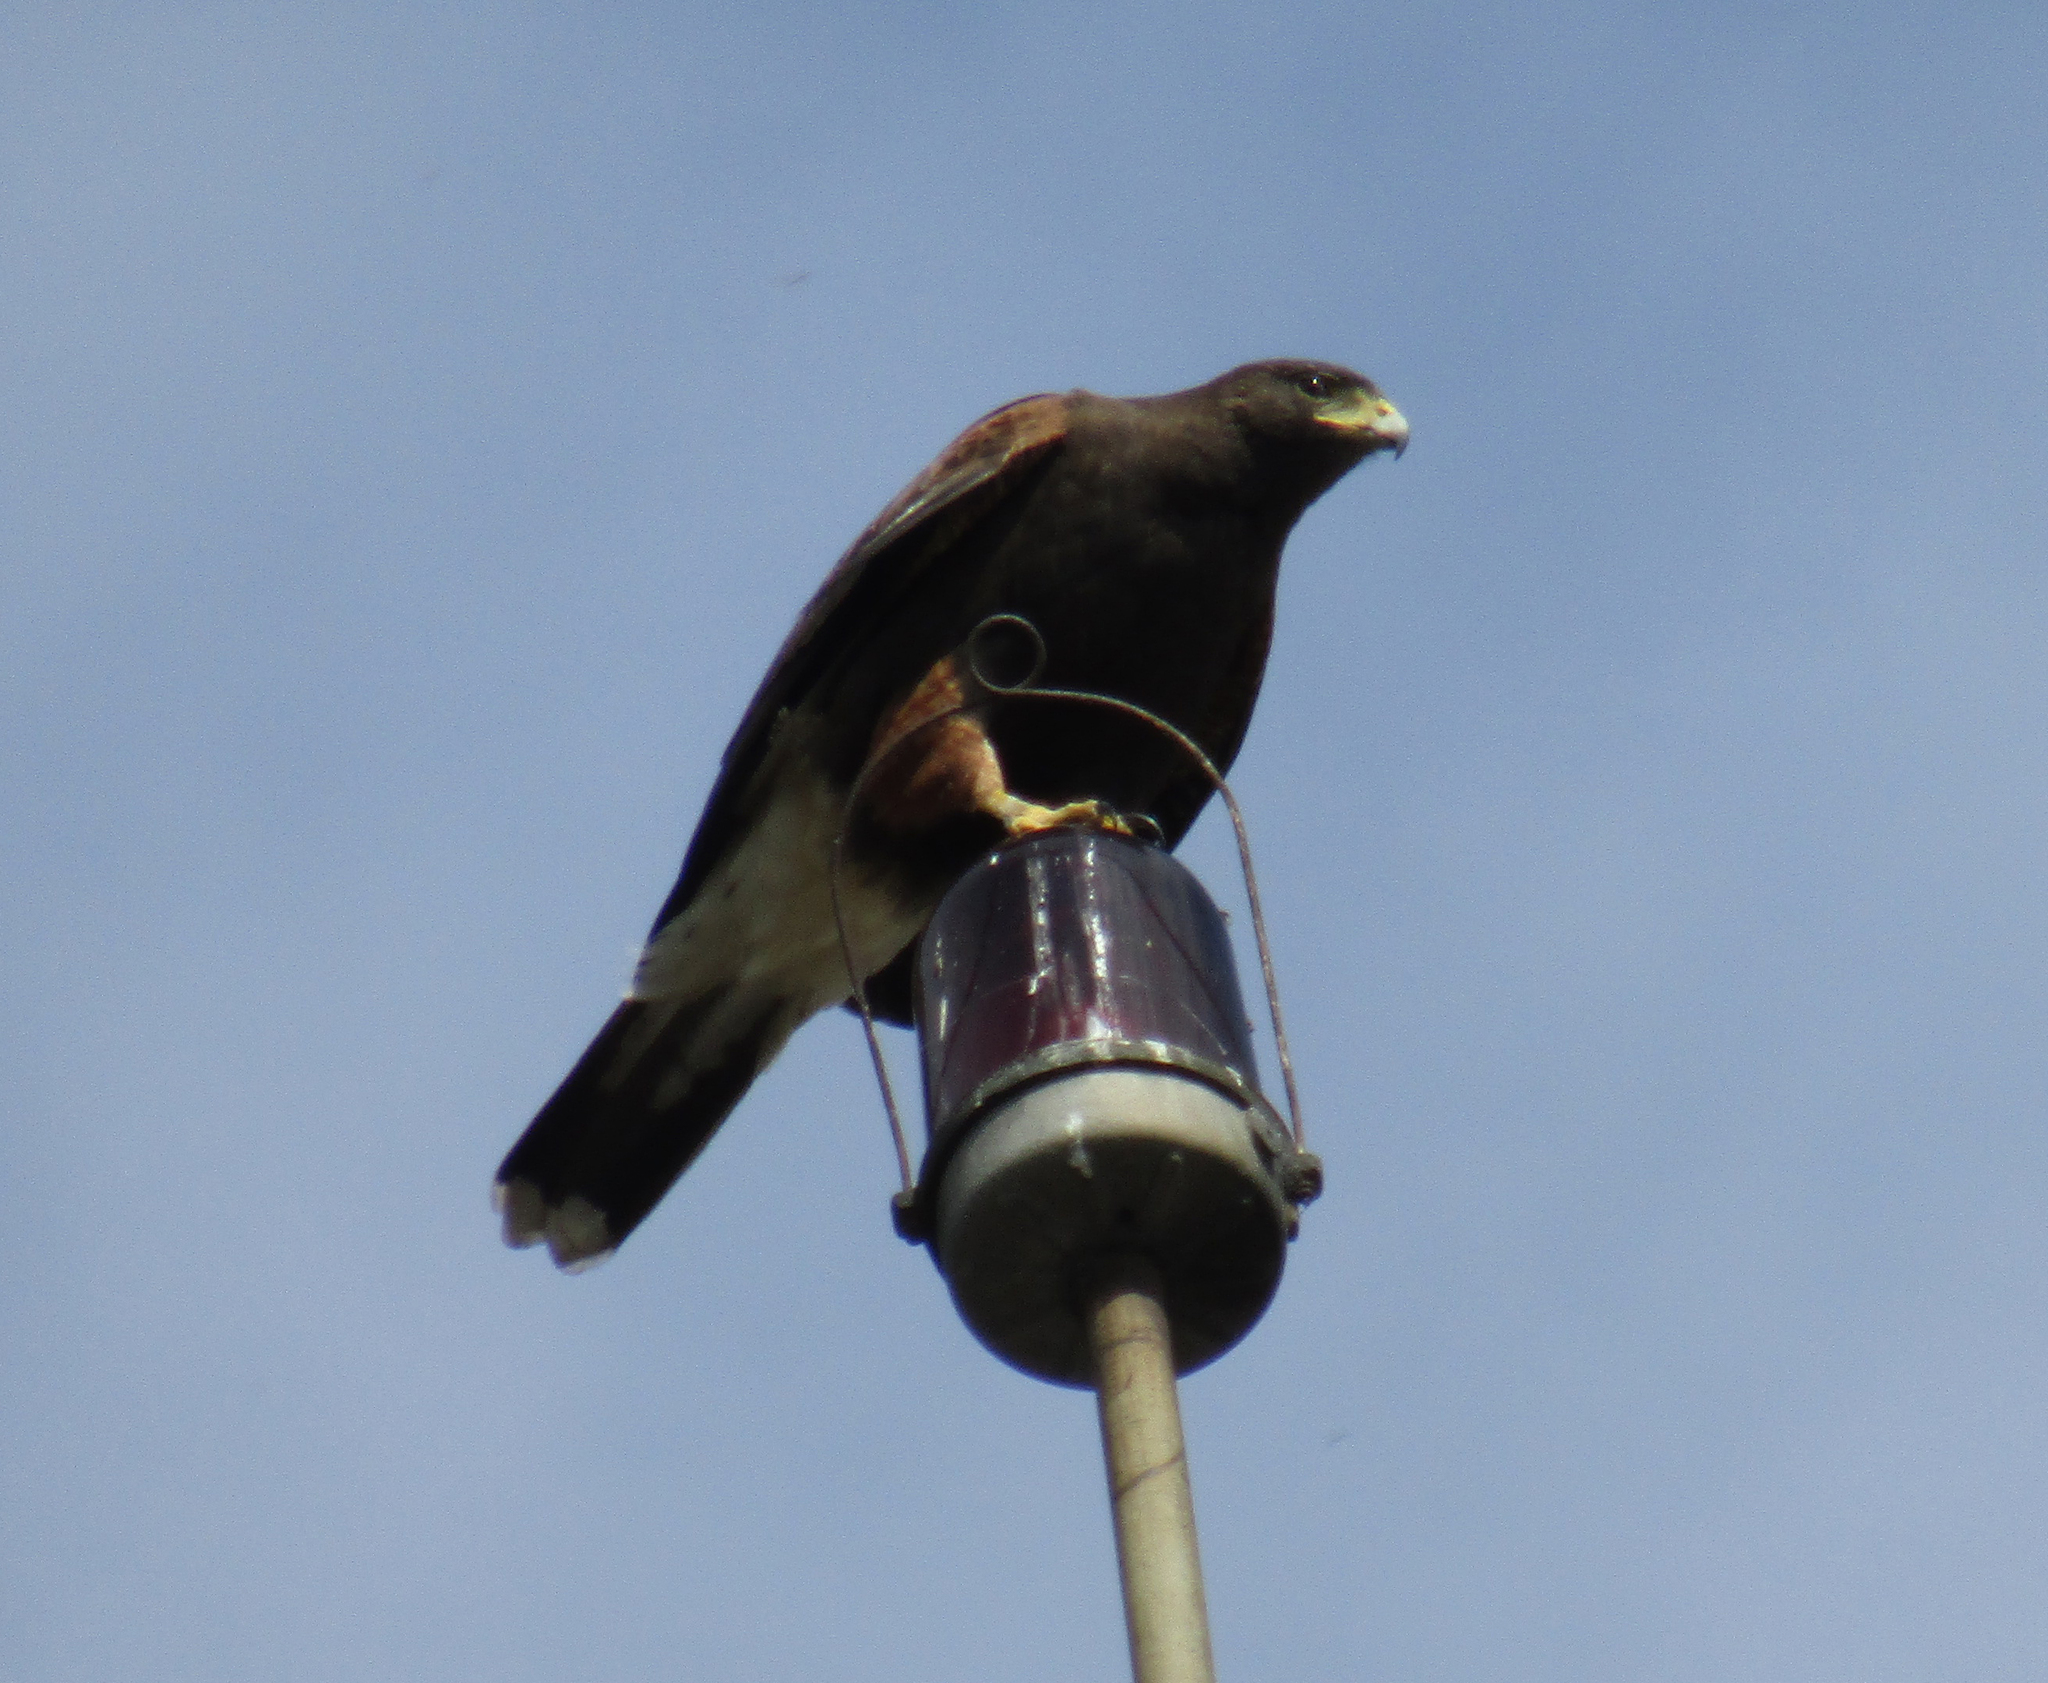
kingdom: Animalia
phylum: Chordata
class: Aves
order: Accipitriformes
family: Accipitridae
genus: Parabuteo
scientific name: Parabuteo unicinctus
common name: Harris's hawk
